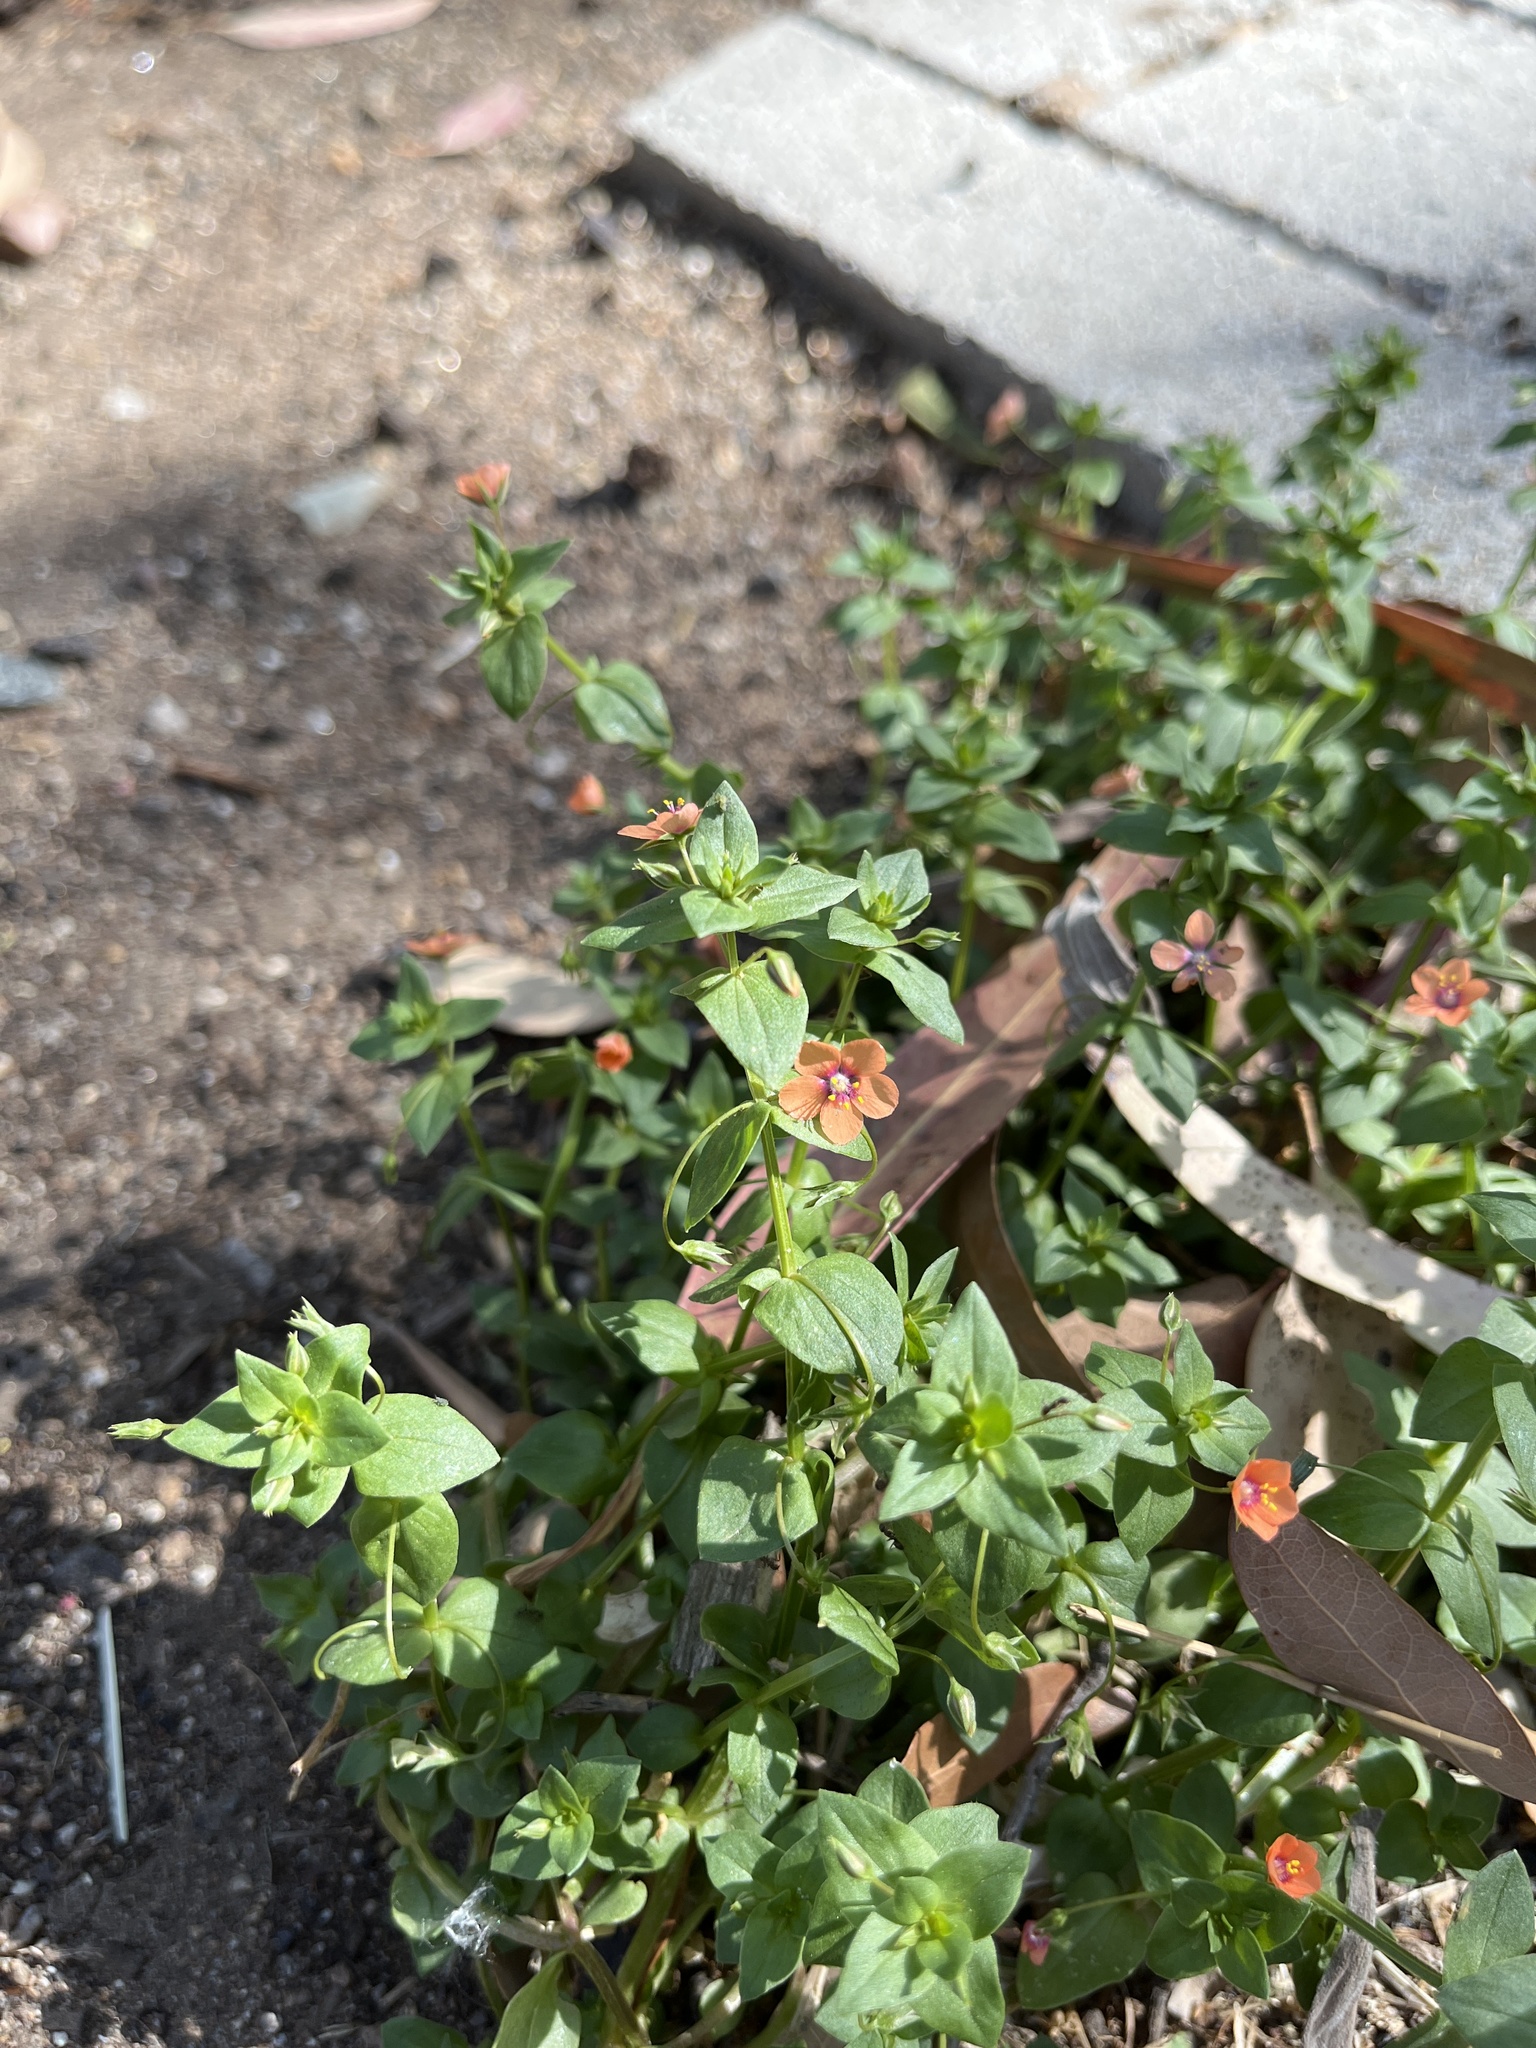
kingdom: Plantae
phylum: Tracheophyta
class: Magnoliopsida
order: Ericales
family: Primulaceae
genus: Lysimachia
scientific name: Lysimachia arvensis
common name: Scarlet pimpernel
